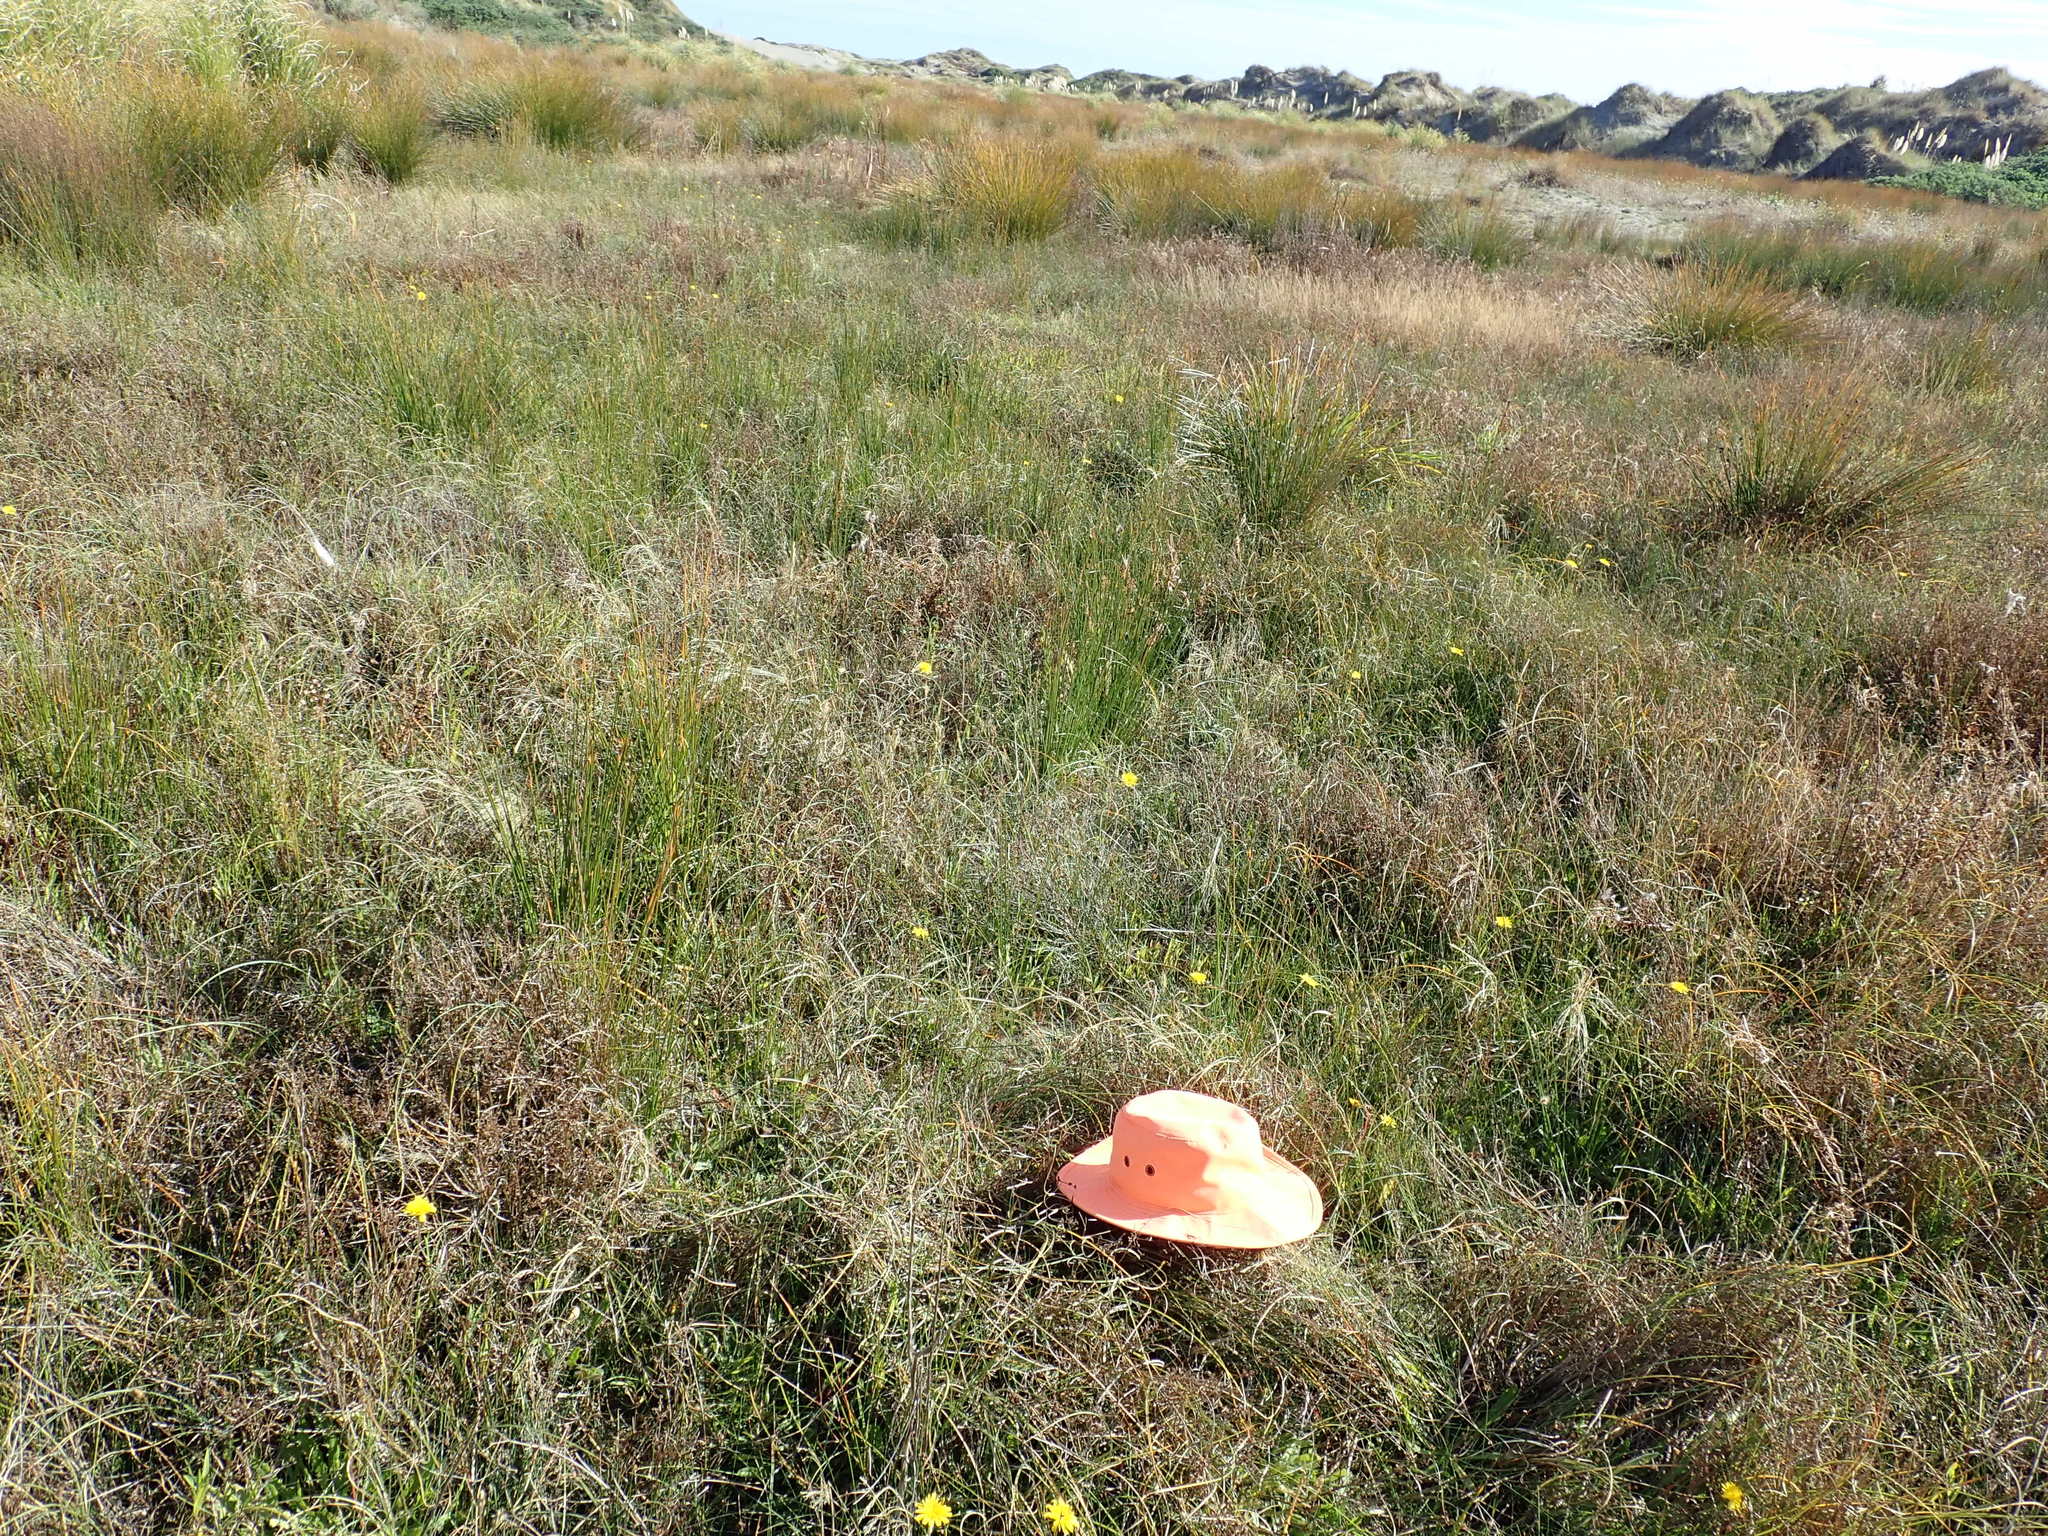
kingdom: Plantae
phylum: Tracheophyta
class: Liliopsida
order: Alismatales
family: Juncaginaceae
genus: Triglochin
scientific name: Triglochin striata
